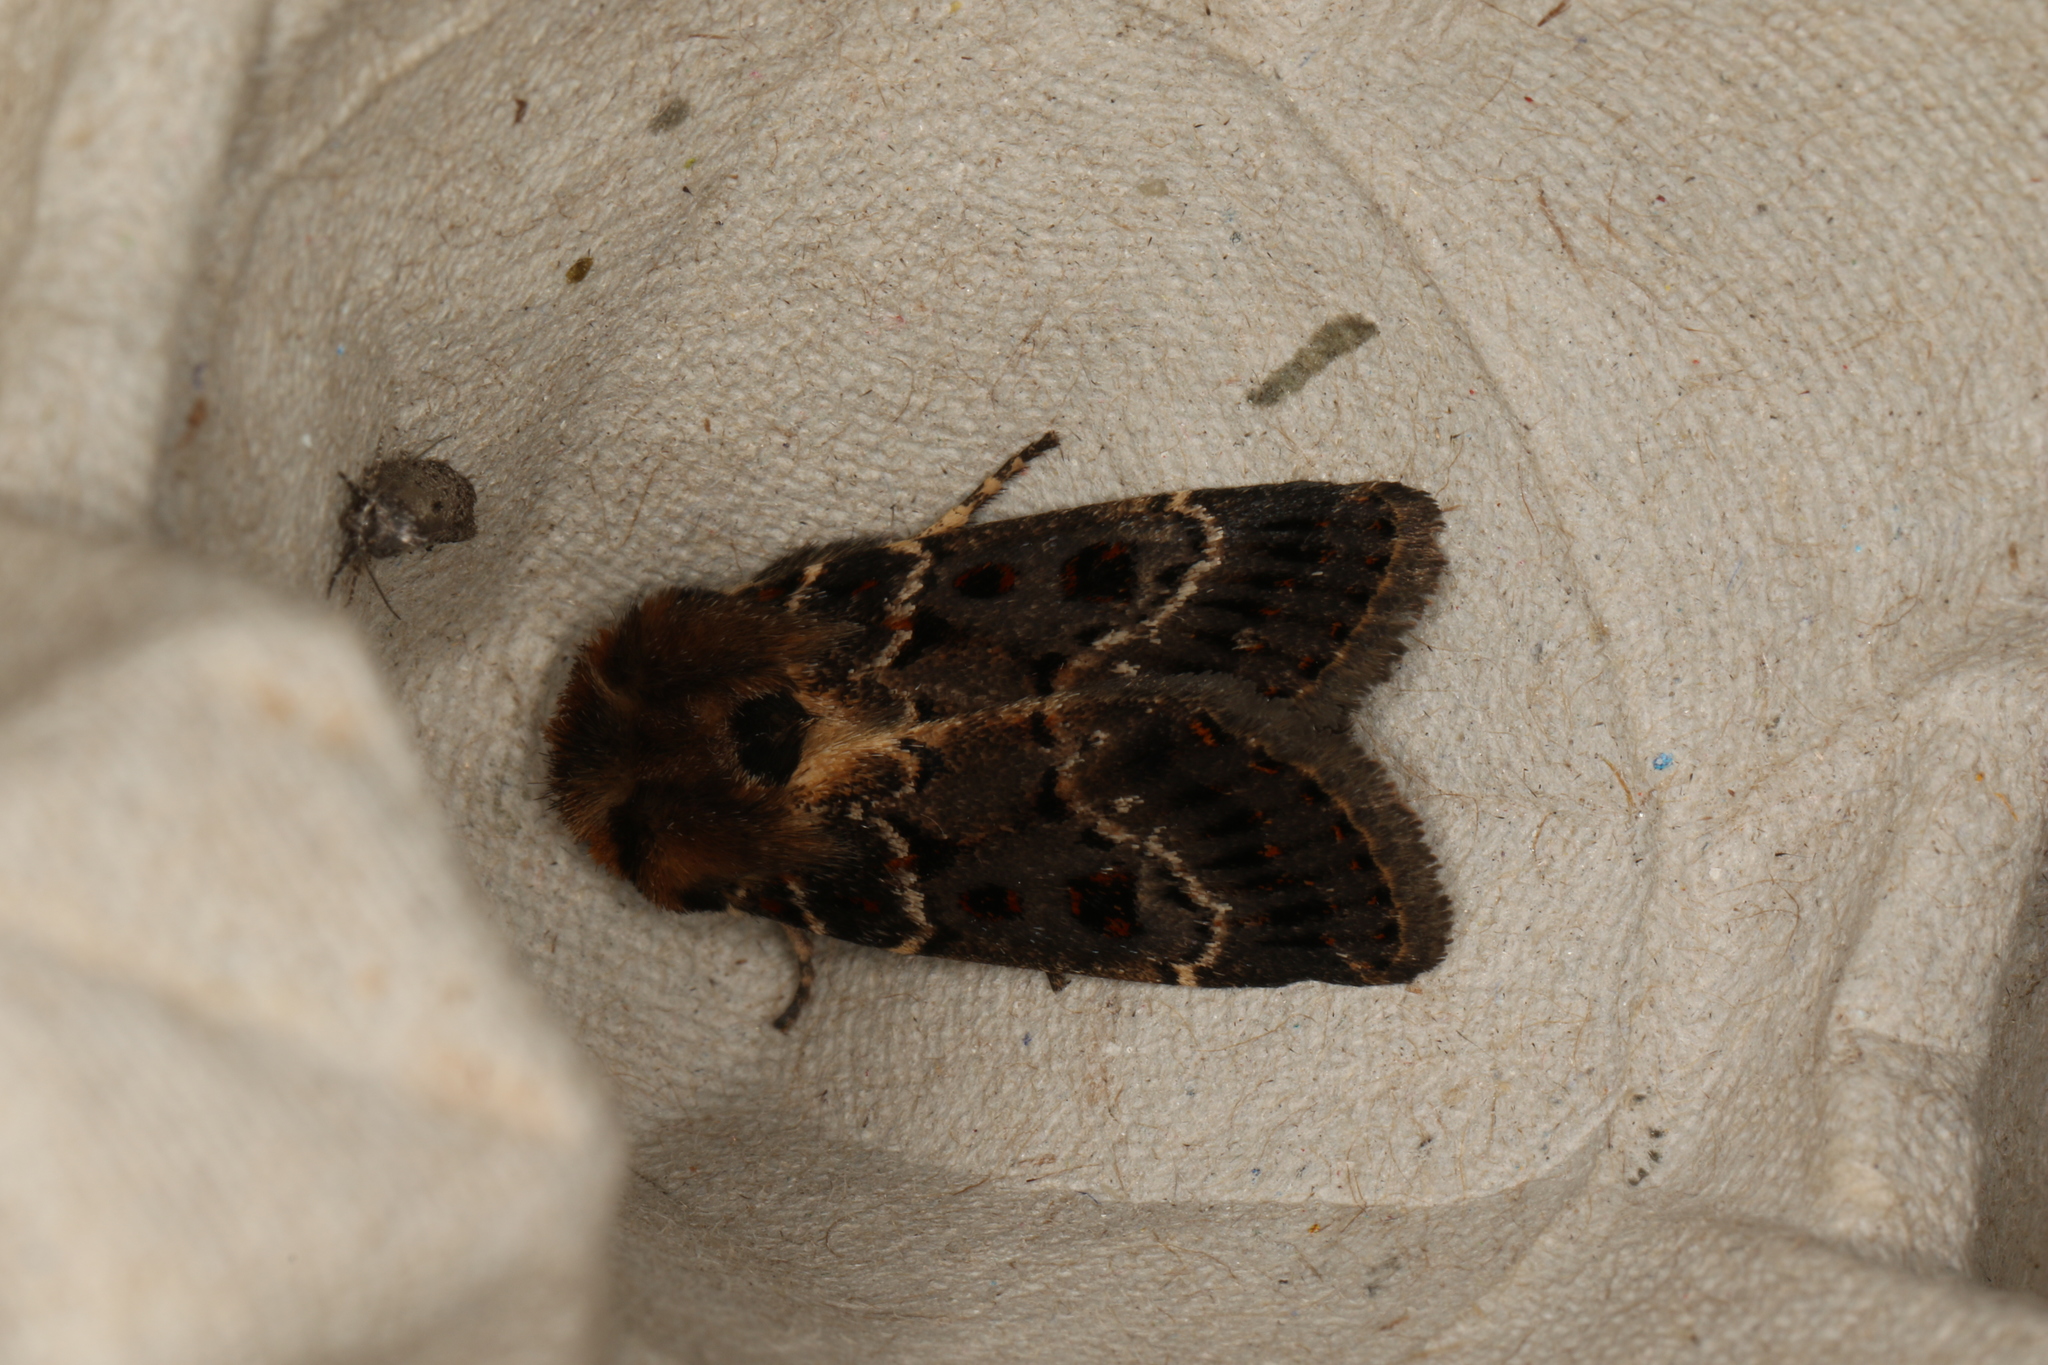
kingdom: Animalia
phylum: Arthropoda
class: Insecta
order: Lepidoptera
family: Noctuidae
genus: Proteuxoa
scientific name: Proteuxoa sanguinipuncta
